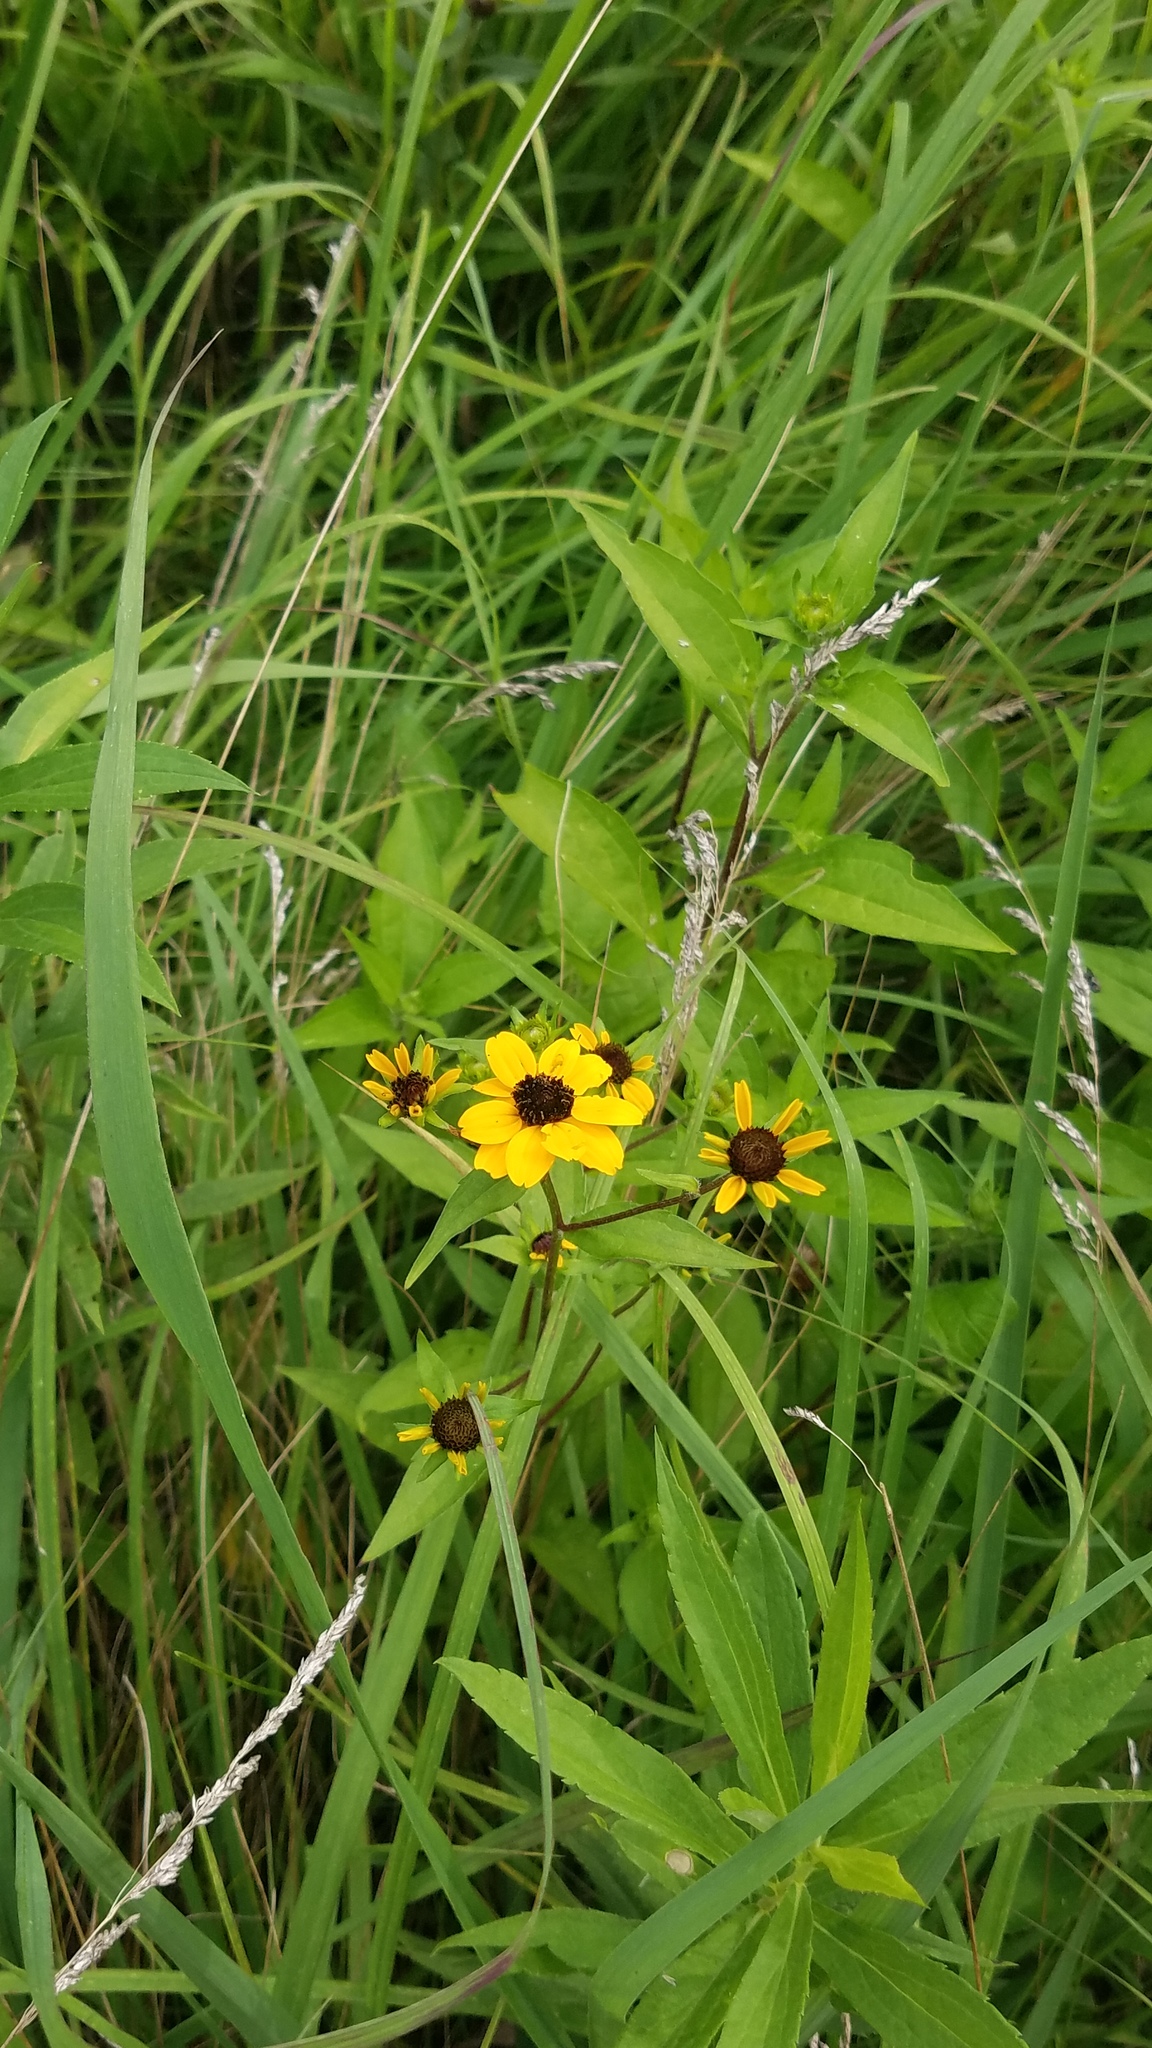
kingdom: Plantae
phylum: Tracheophyta
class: Magnoliopsida
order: Asterales
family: Asteraceae
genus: Rudbeckia
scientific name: Rudbeckia triloba
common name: Thin-leaved coneflower
